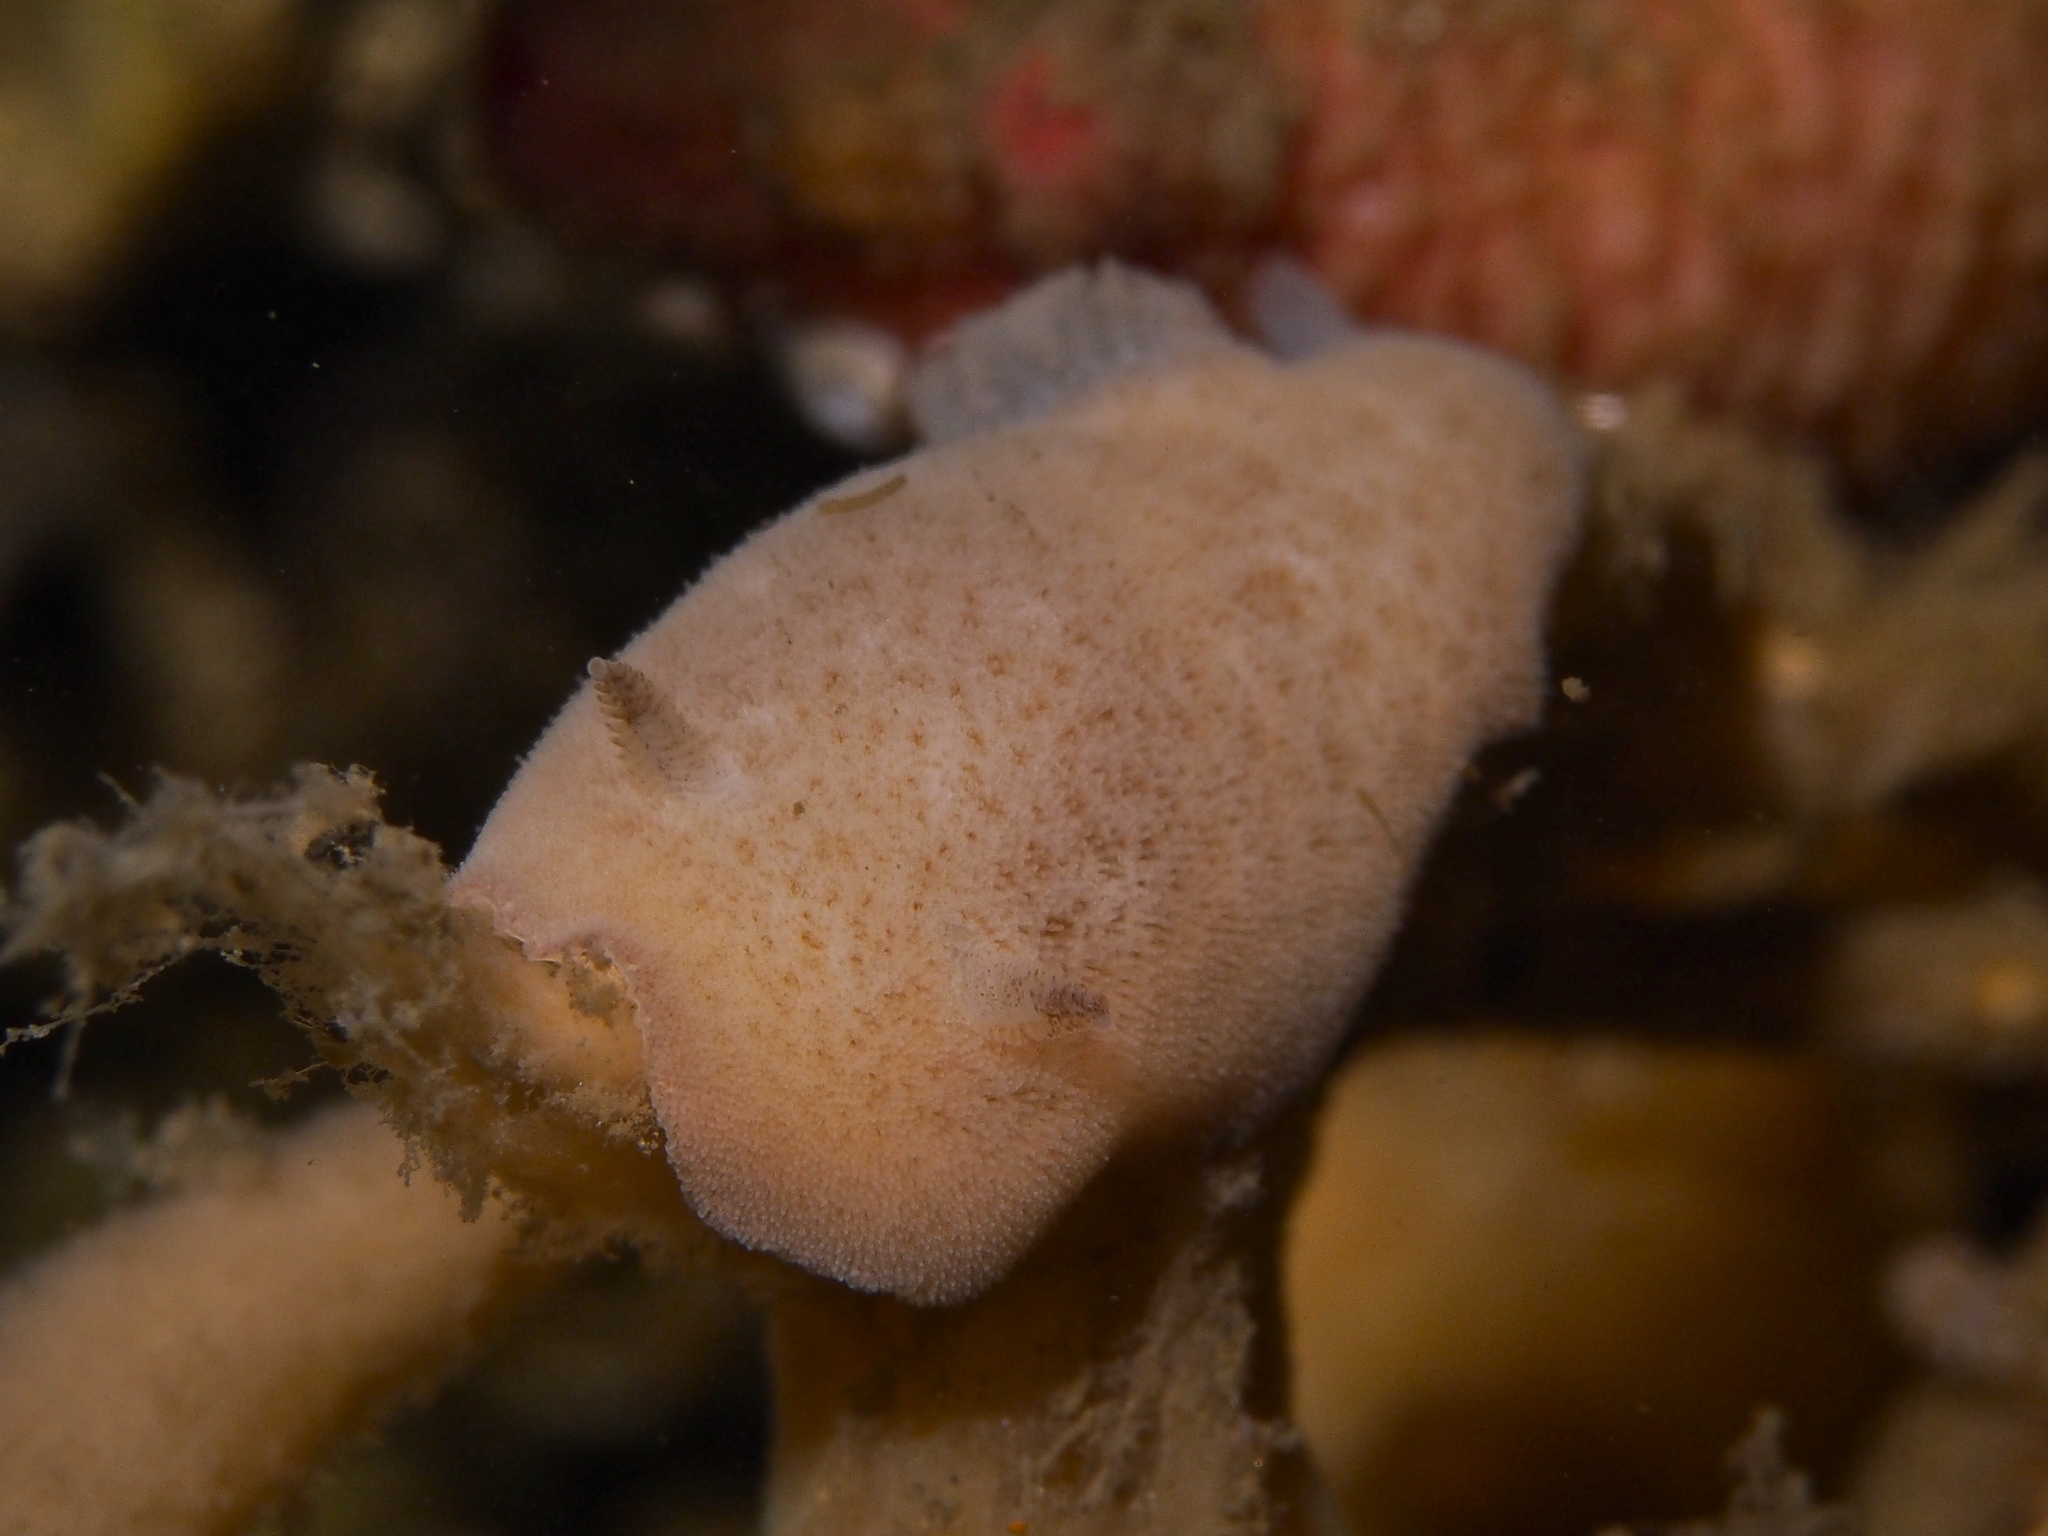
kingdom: Animalia
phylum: Mollusca
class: Gastropoda
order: Nudibranchia
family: Discodorididae
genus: Jorunna
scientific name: Jorunna tomentosa
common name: Grey sea slug
